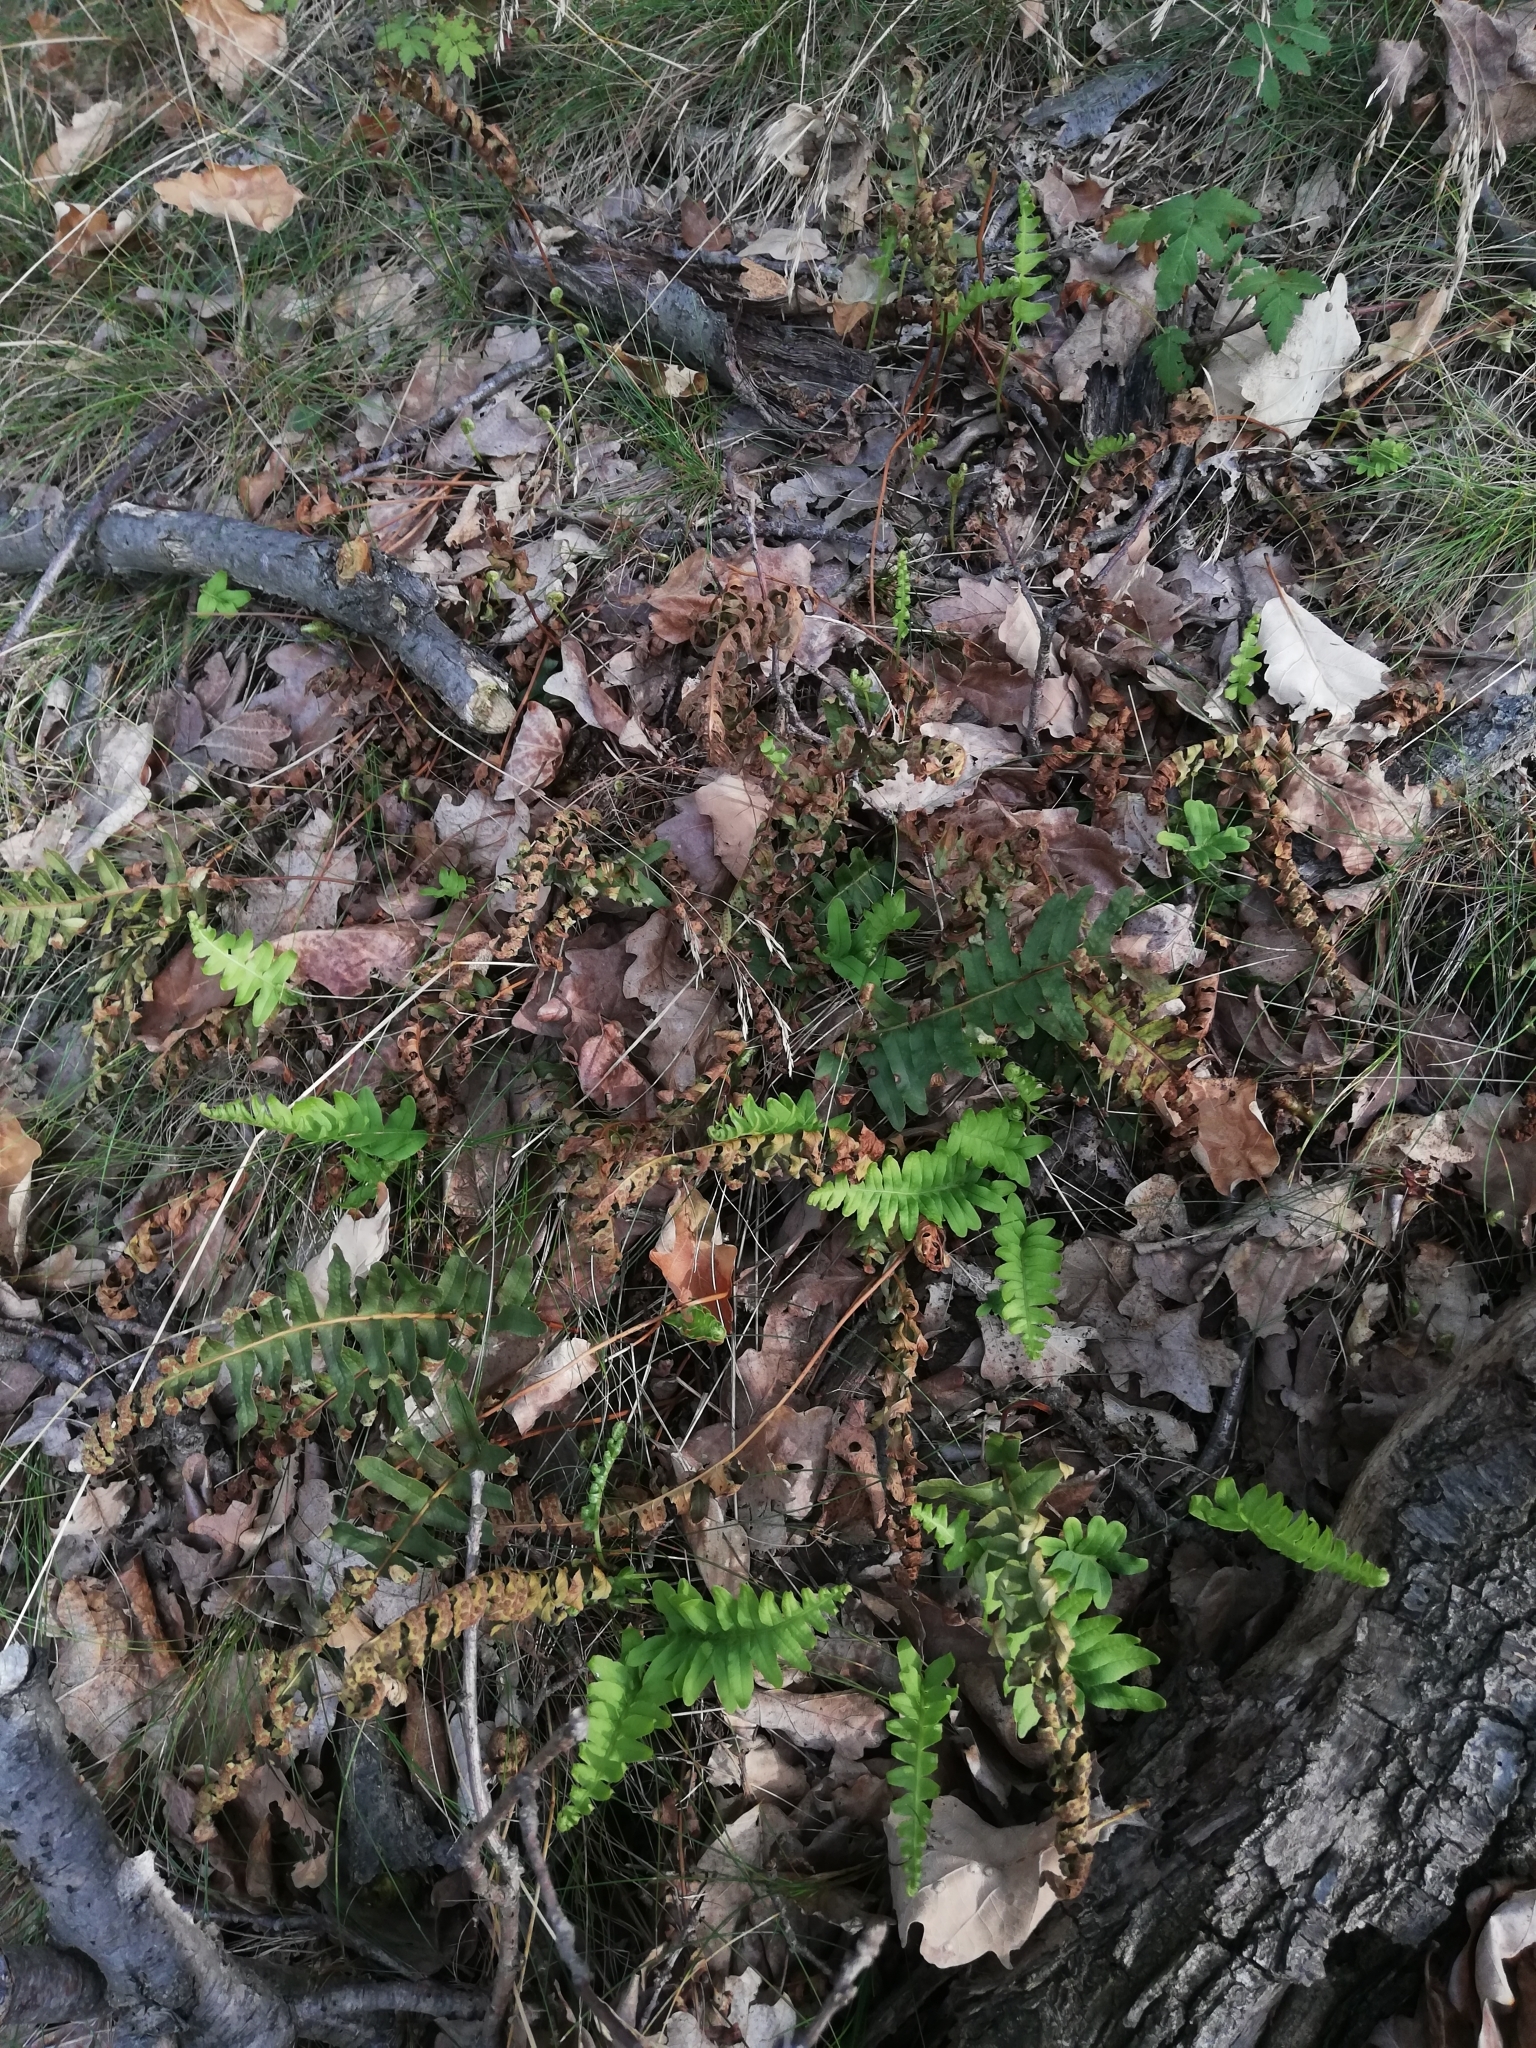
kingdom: Plantae
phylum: Tracheophyta
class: Polypodiopsida
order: Polypodiales
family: Polypodiaceae
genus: Polypodium
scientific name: Polypodium vulgare
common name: Common polypody
